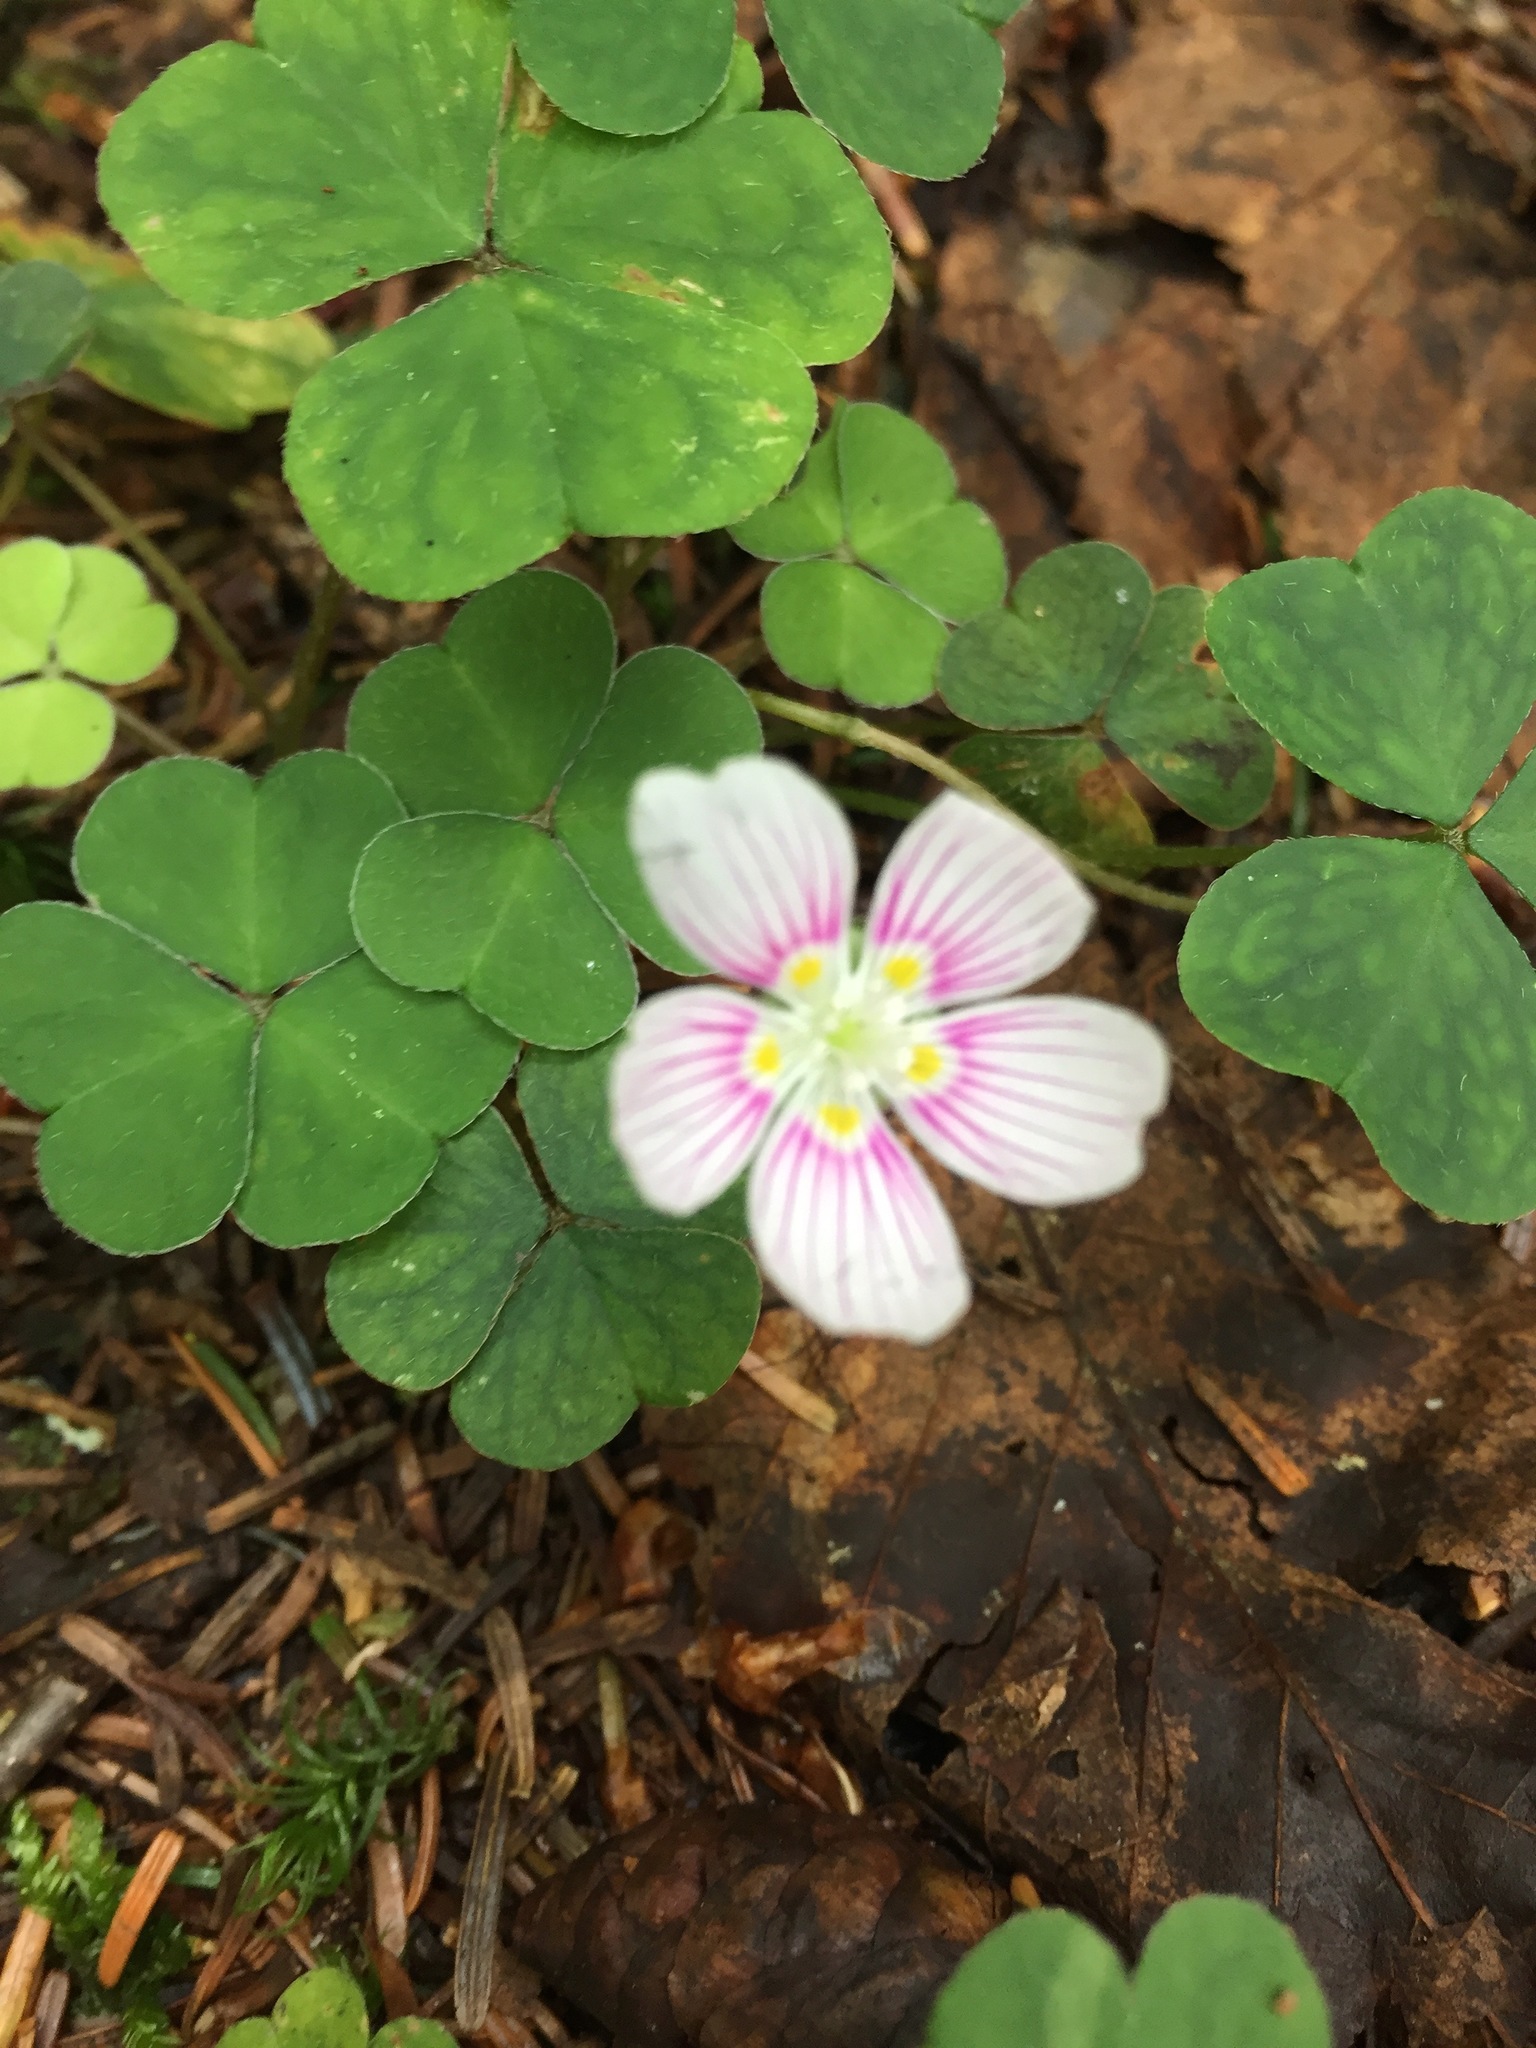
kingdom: Plantae
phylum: Tracheophyta
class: Magnoliopsida
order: Oxalidales
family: Oxalidaceae
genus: Oxalis
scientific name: Oxalis montana
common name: American wood-sorrel
